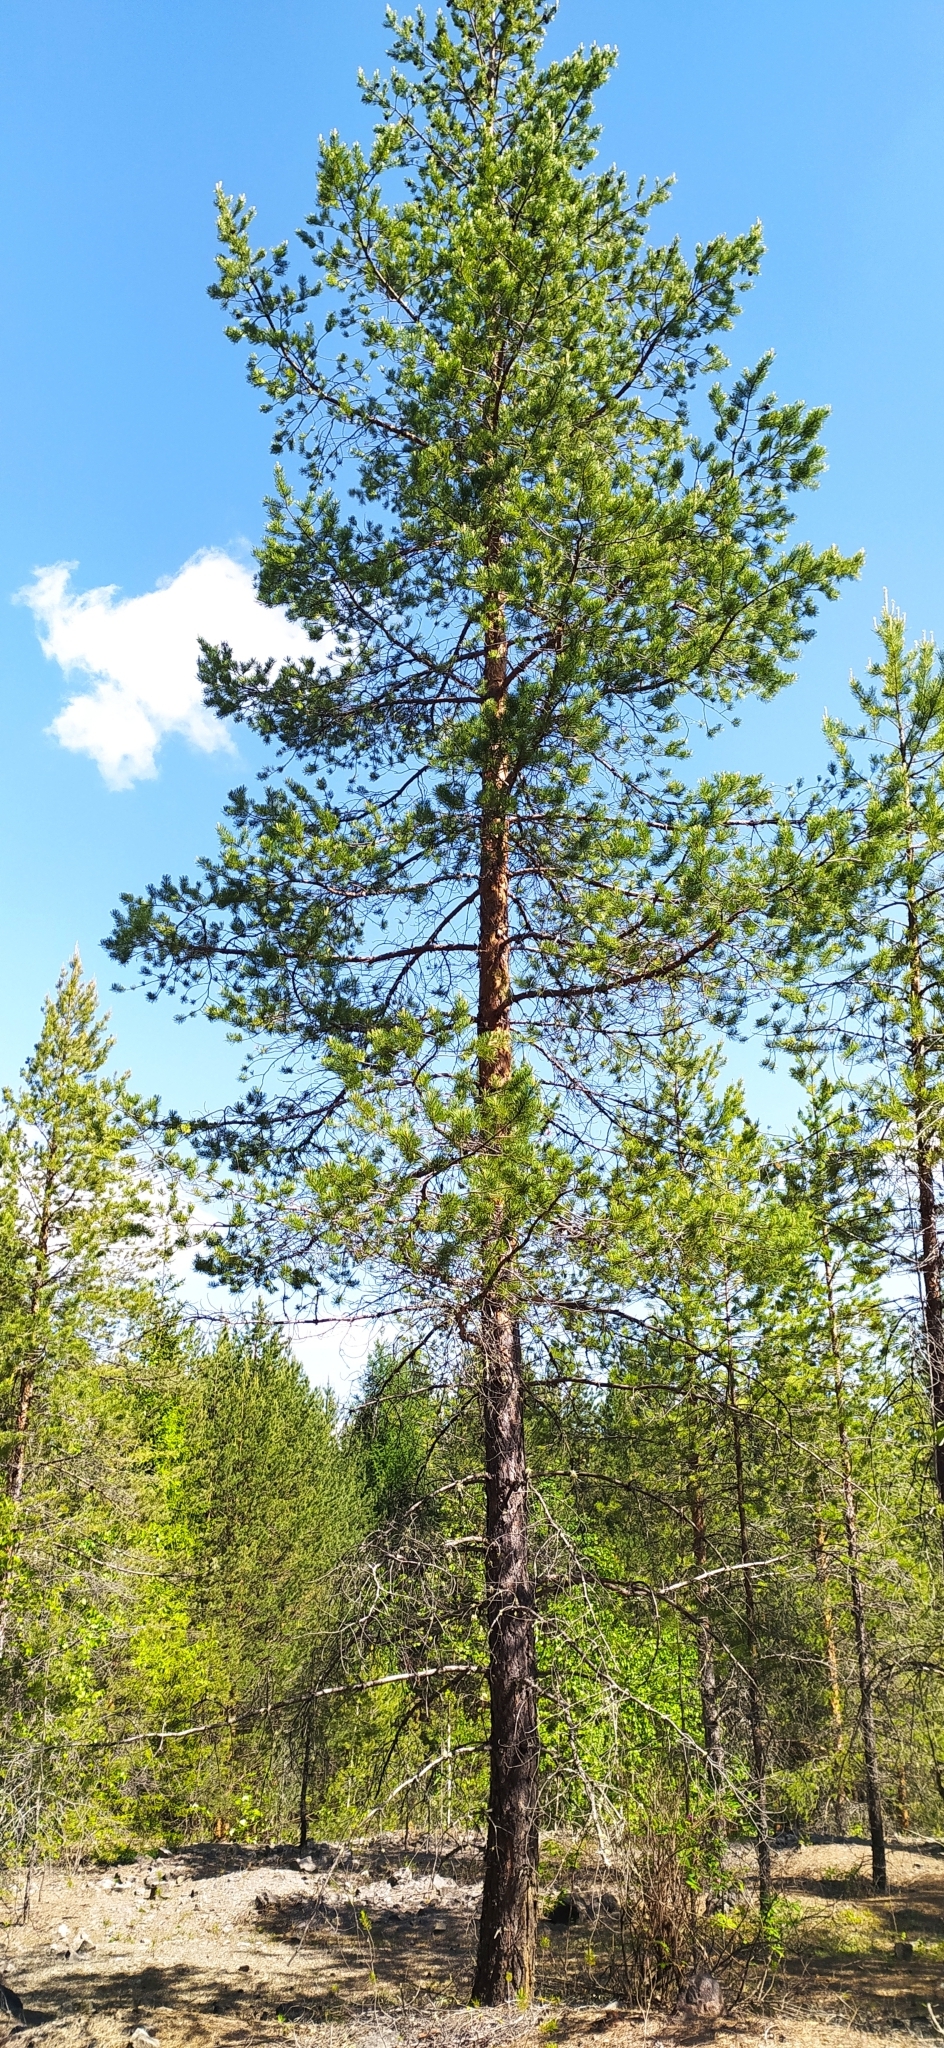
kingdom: Plantae
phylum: Tracheophyta
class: Pinopsida
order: Pinales
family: Pinaceae
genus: Pinus
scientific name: Pinus sylvestris
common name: Scots pine
